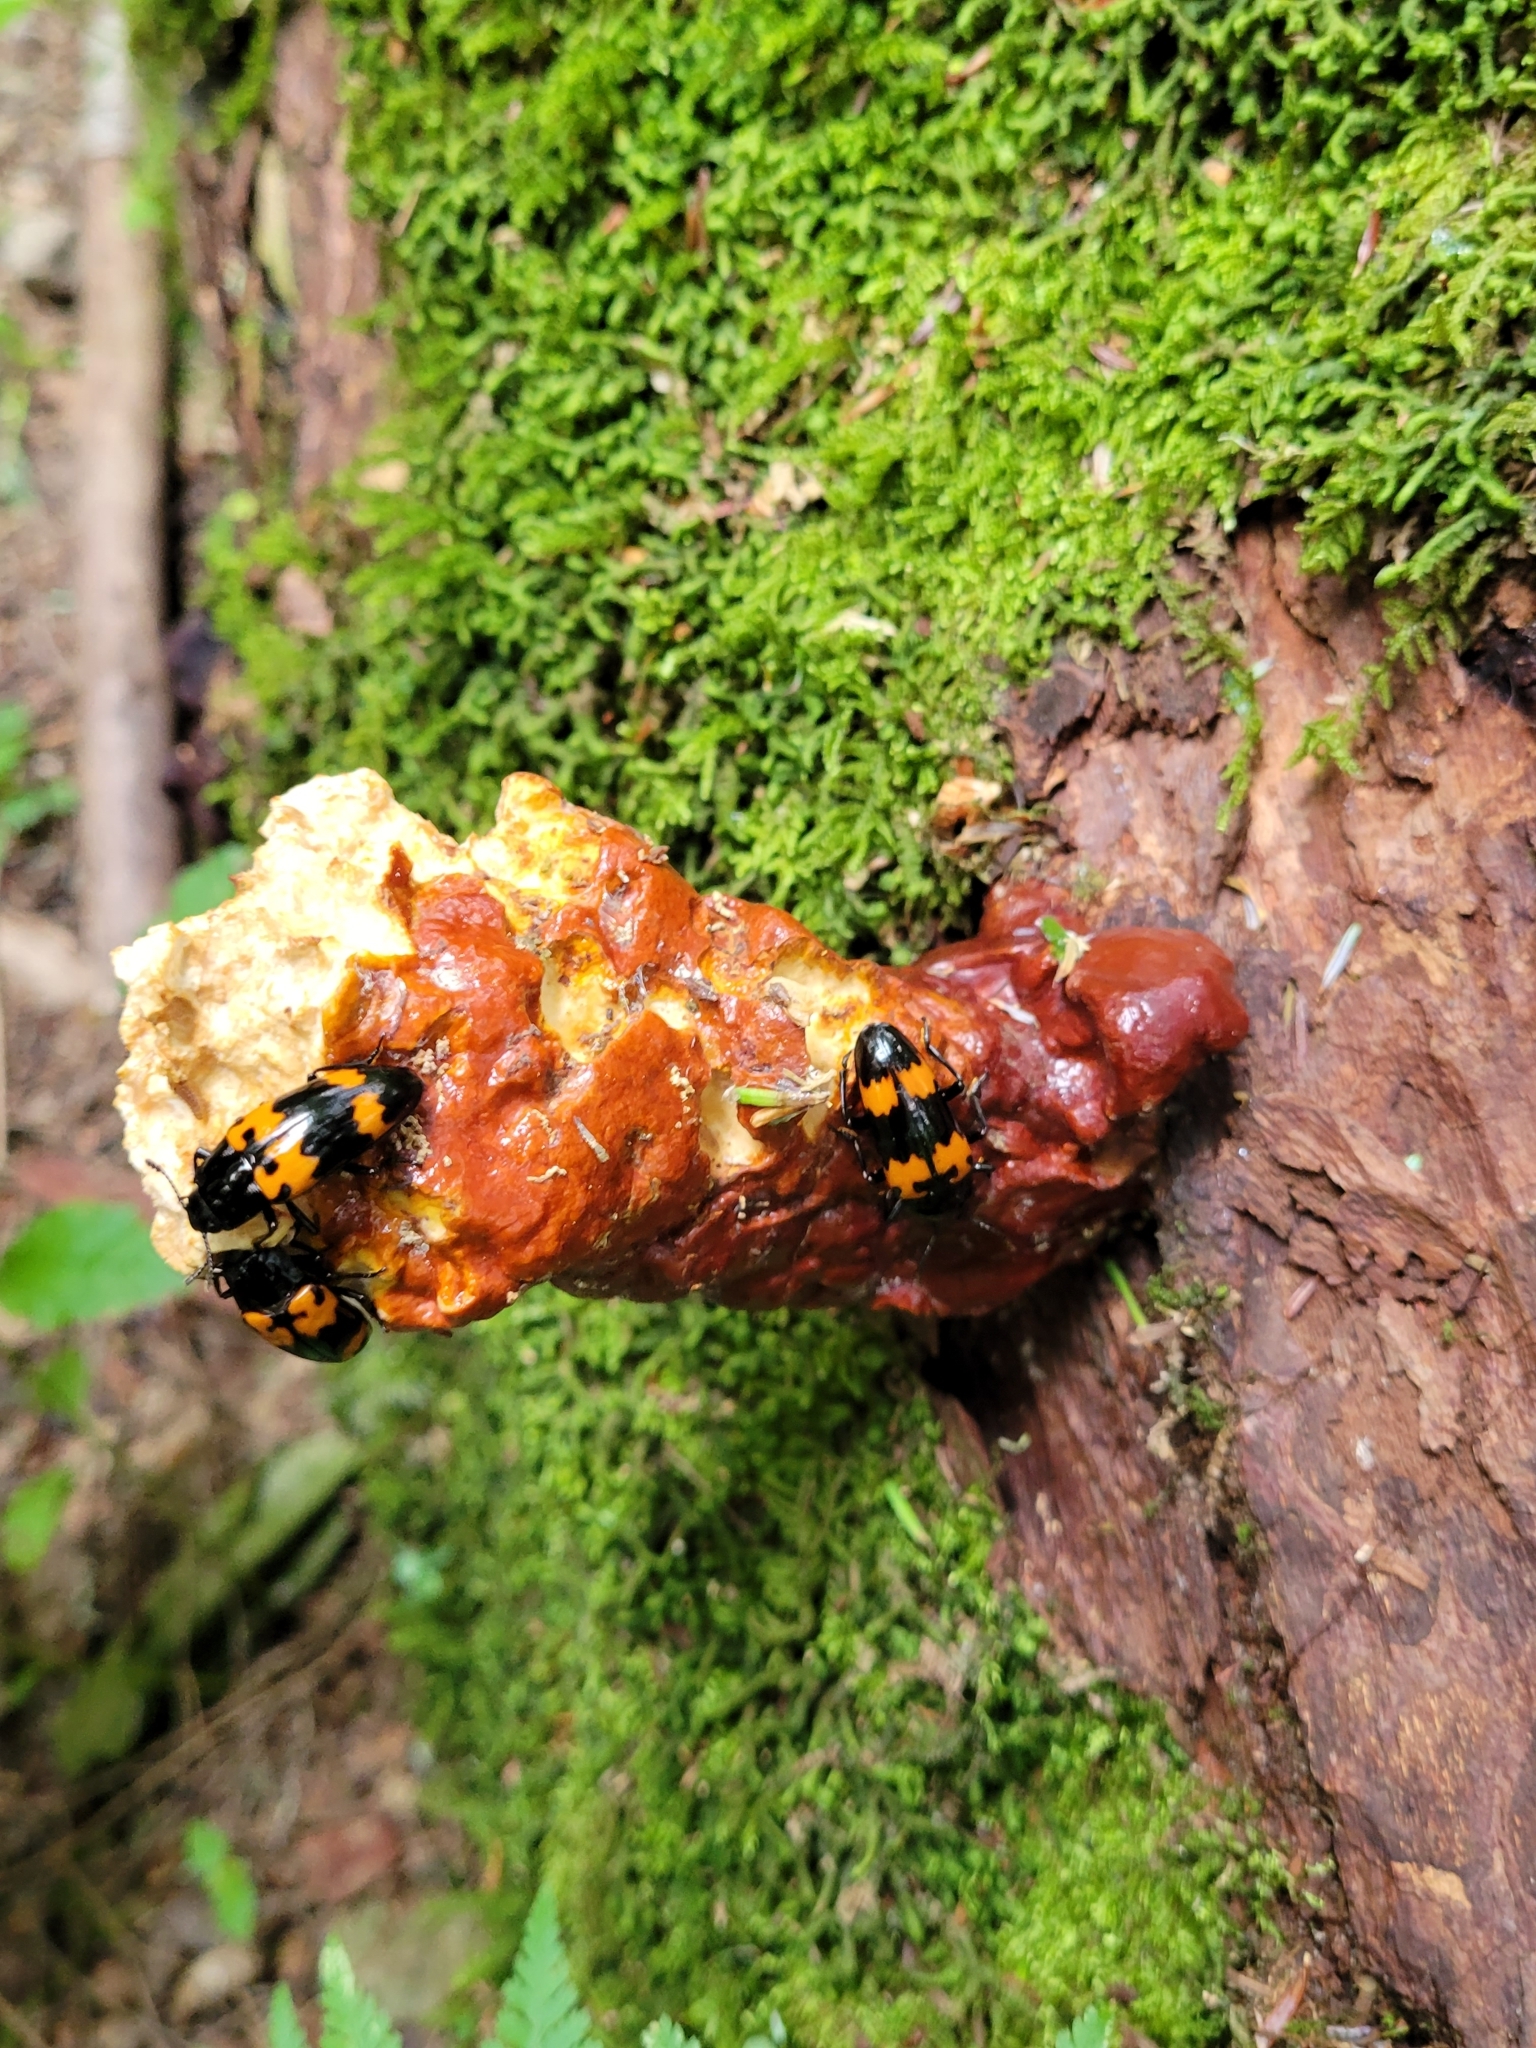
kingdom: Animalia
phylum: Arthropoda
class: Insecta
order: Coleoptera
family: Erotylidae
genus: Megalodacne
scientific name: Megalodacne heros
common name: Pleasing fungus beetle
